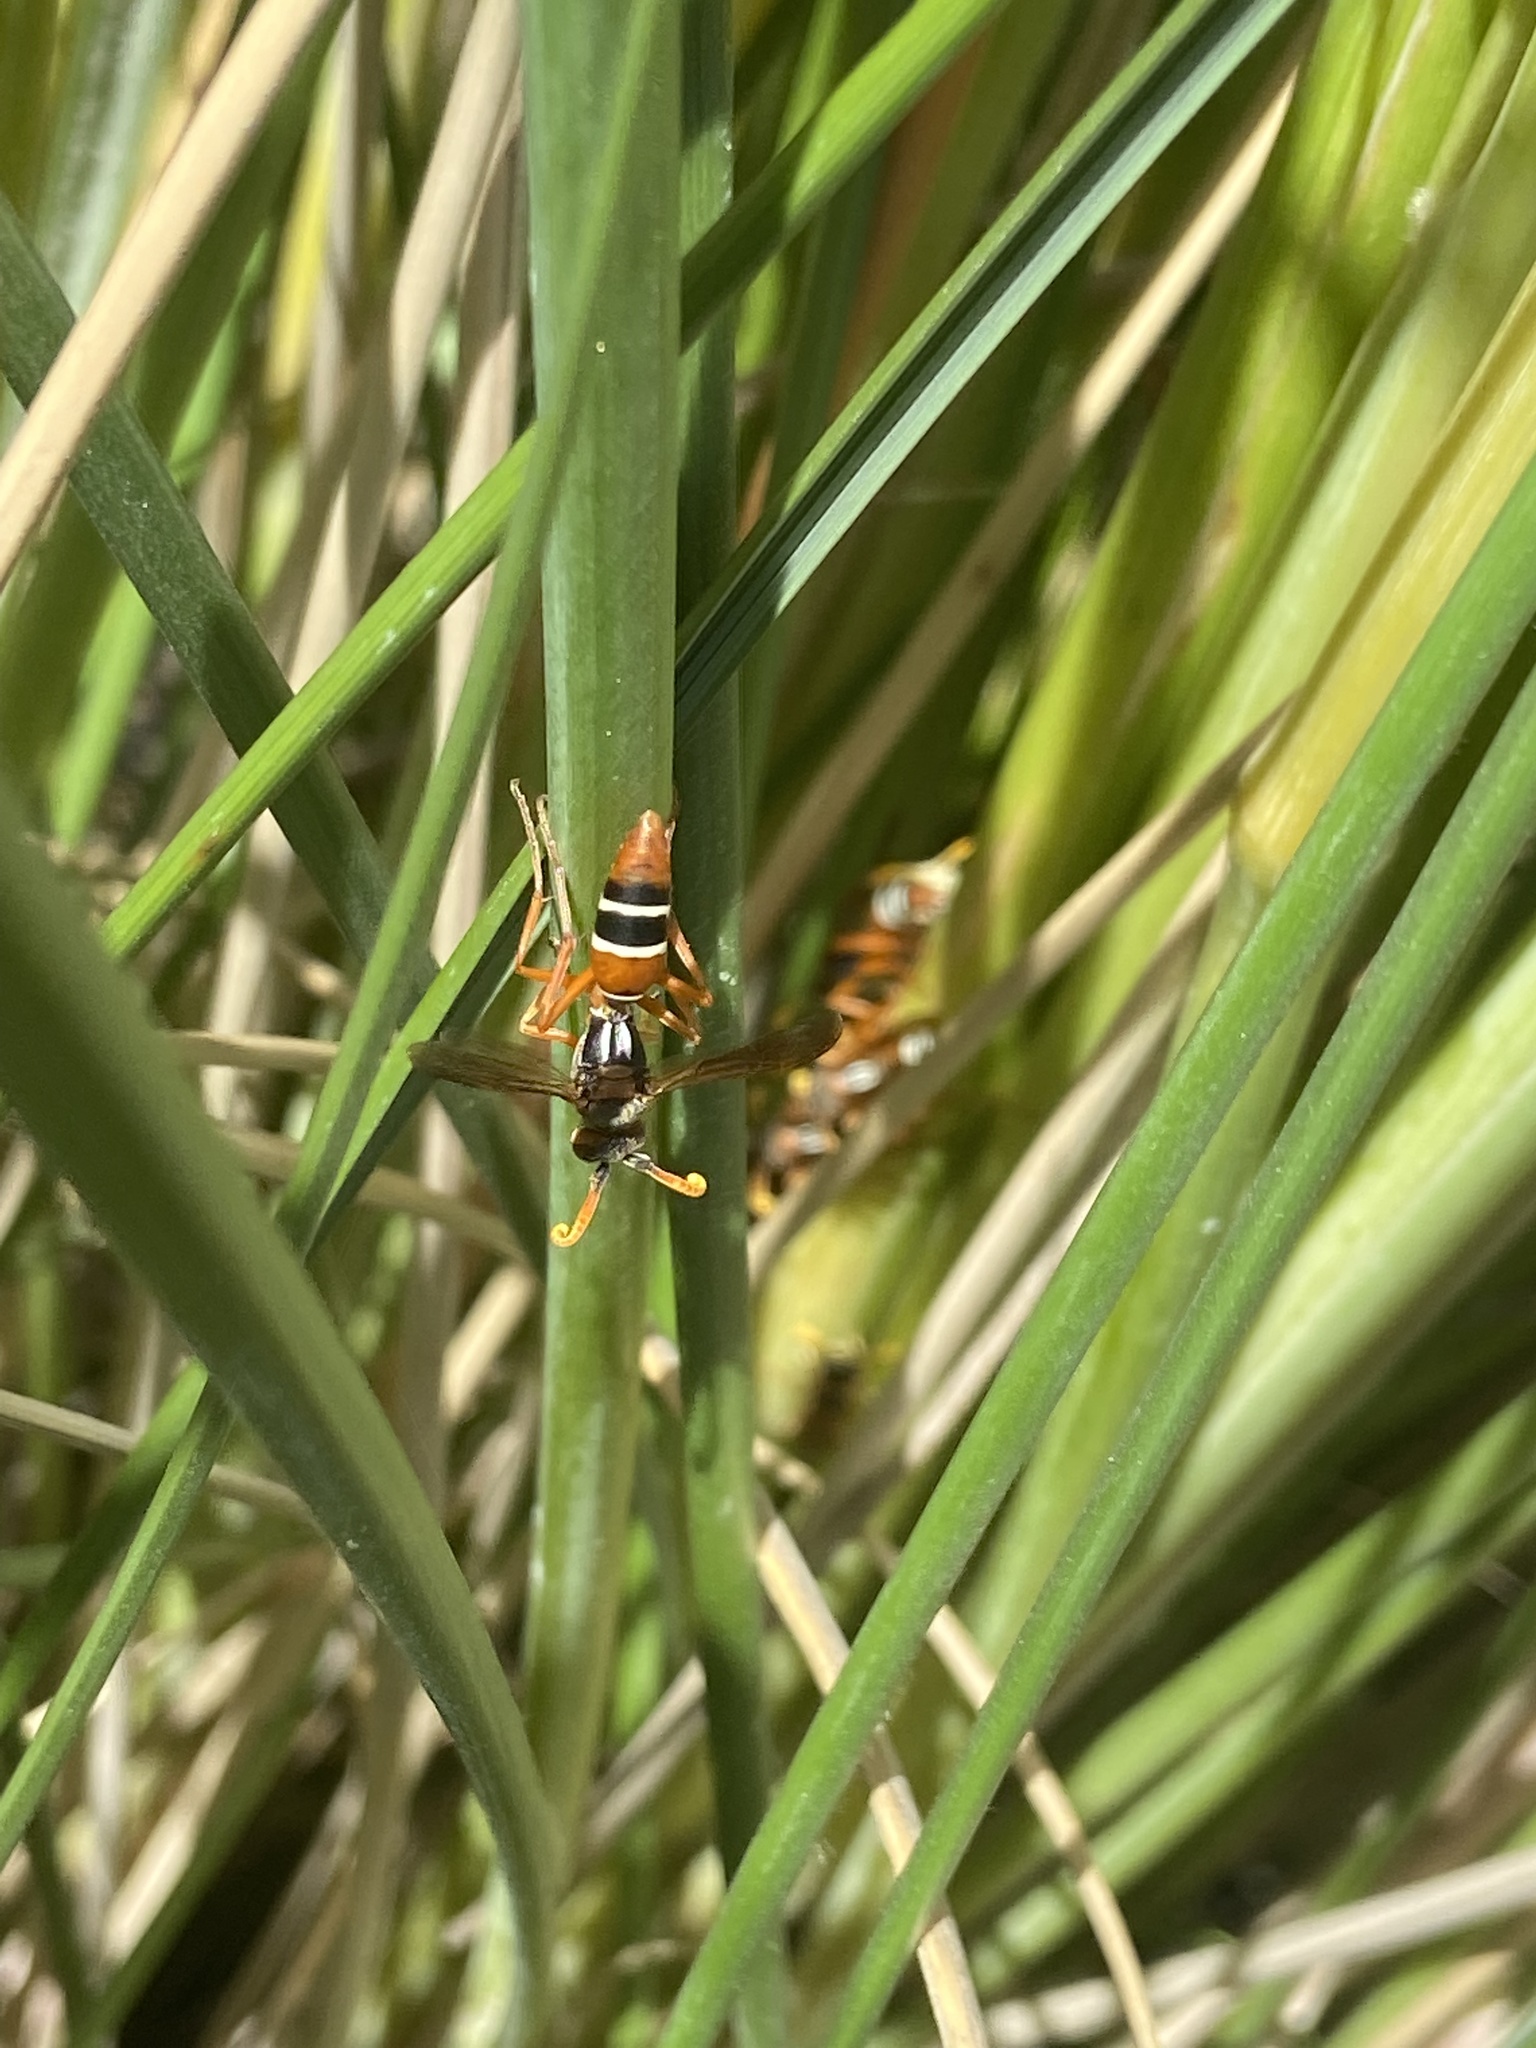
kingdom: Animalia
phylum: Arthropoda
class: Insecta
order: Hymenoptera
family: Eumenidae
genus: Polistes
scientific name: Polistes marginalis
